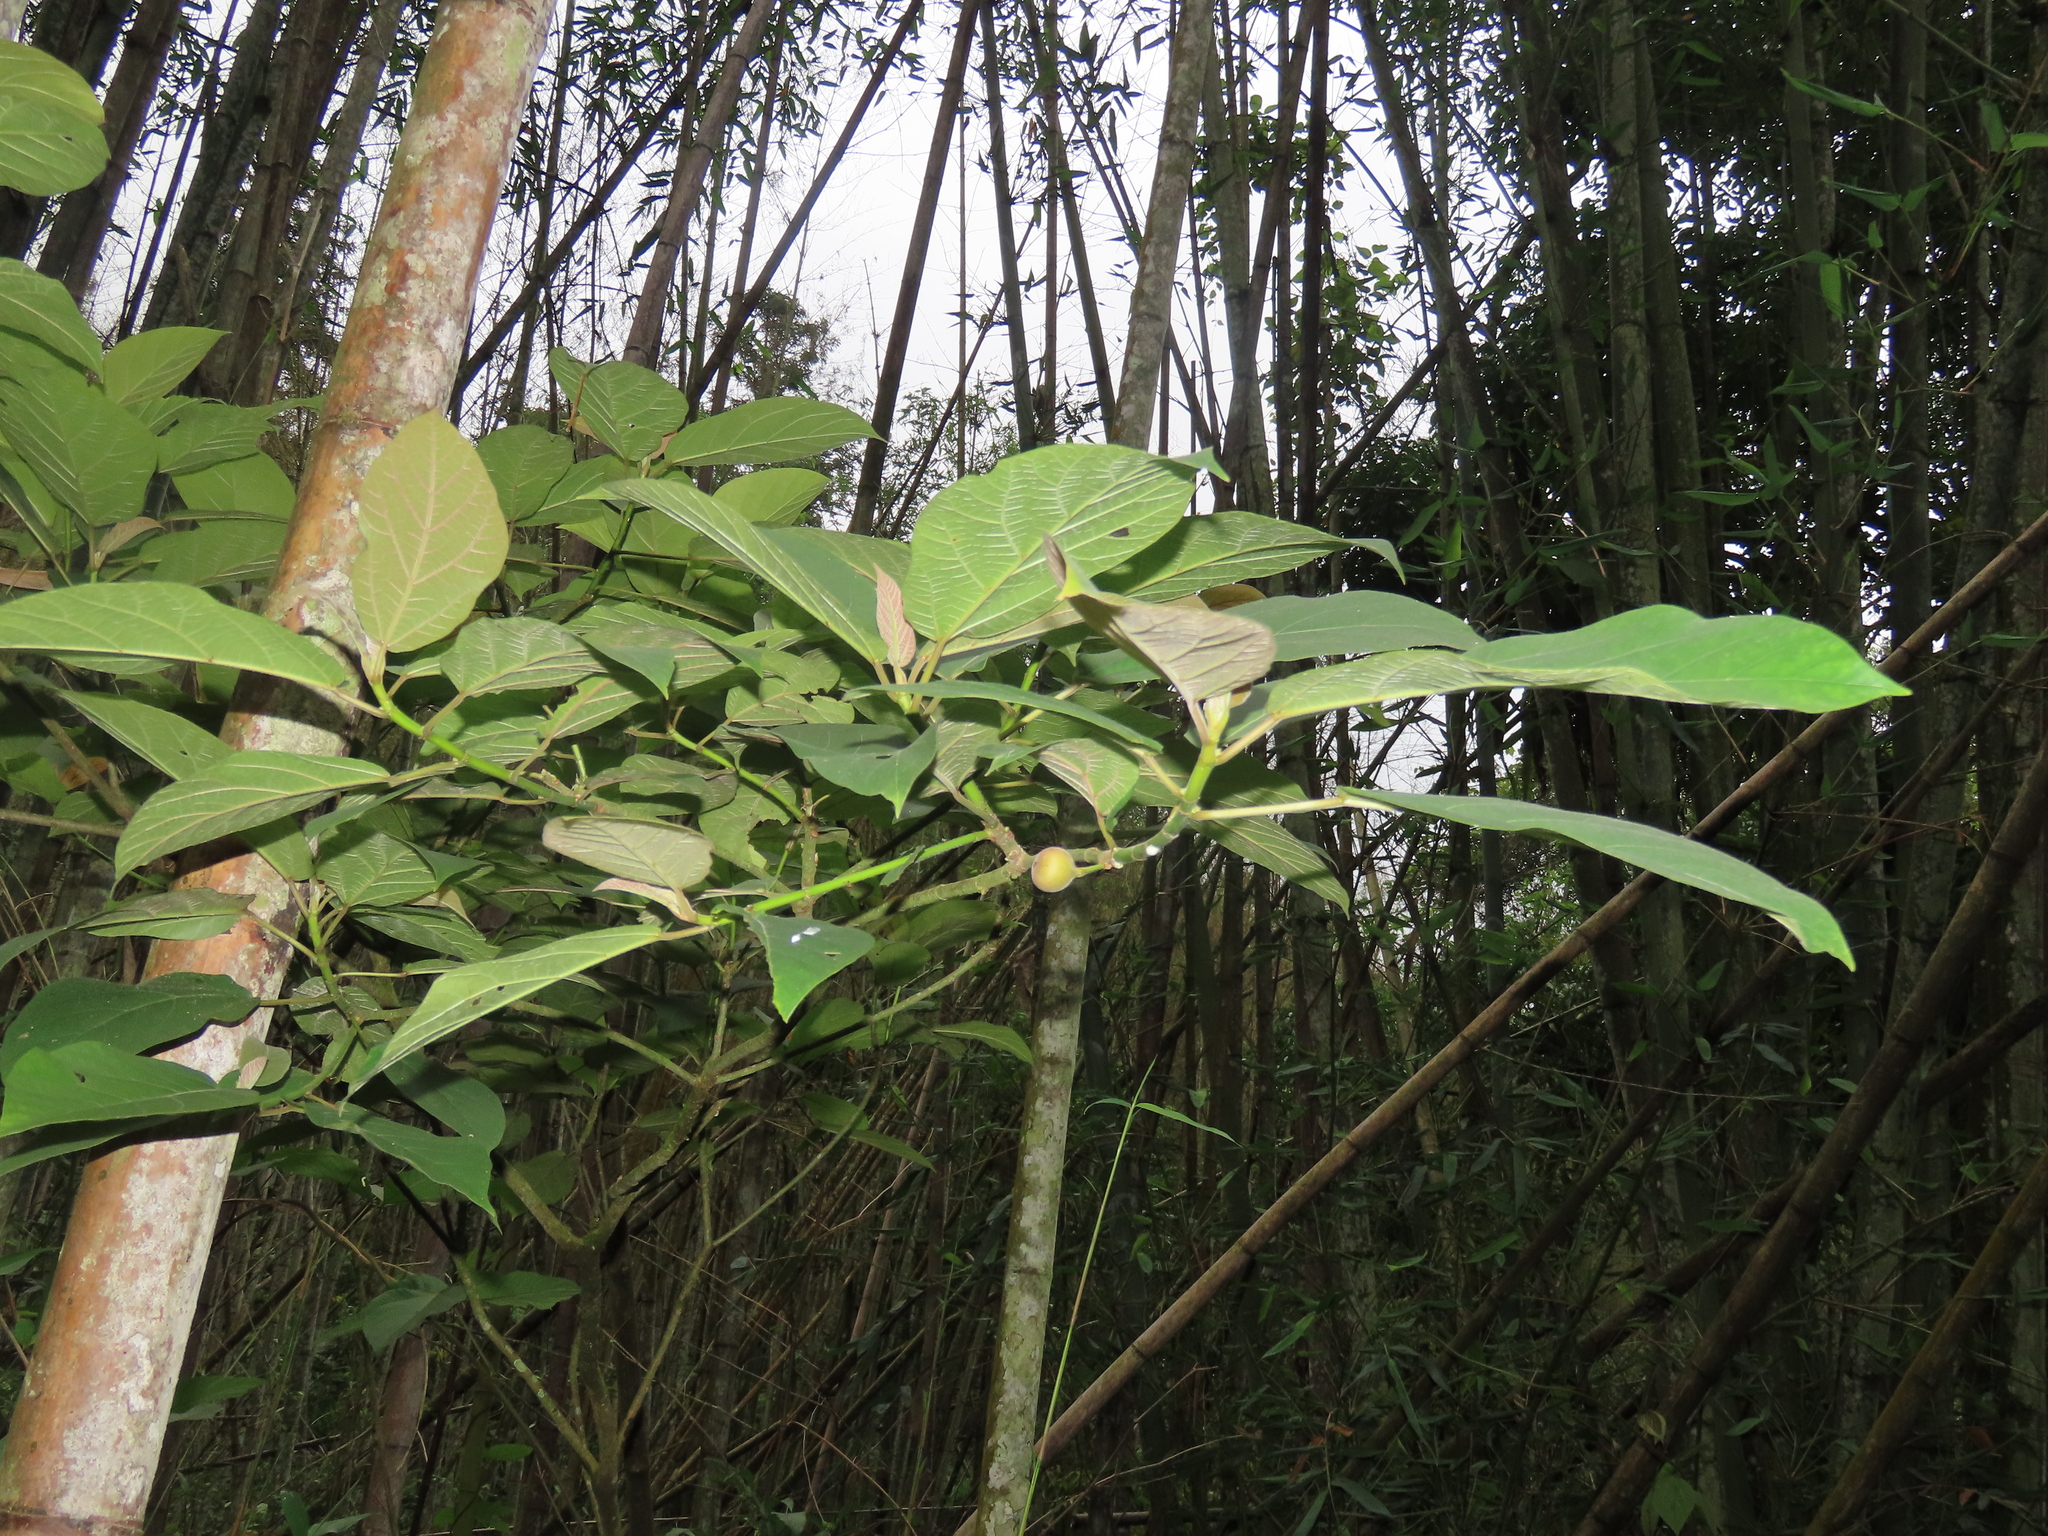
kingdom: Plantae
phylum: Tracheophyta
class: Magnoliopsida
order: Rosales
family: Moraceae
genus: Ficus
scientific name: Ficus erecta
